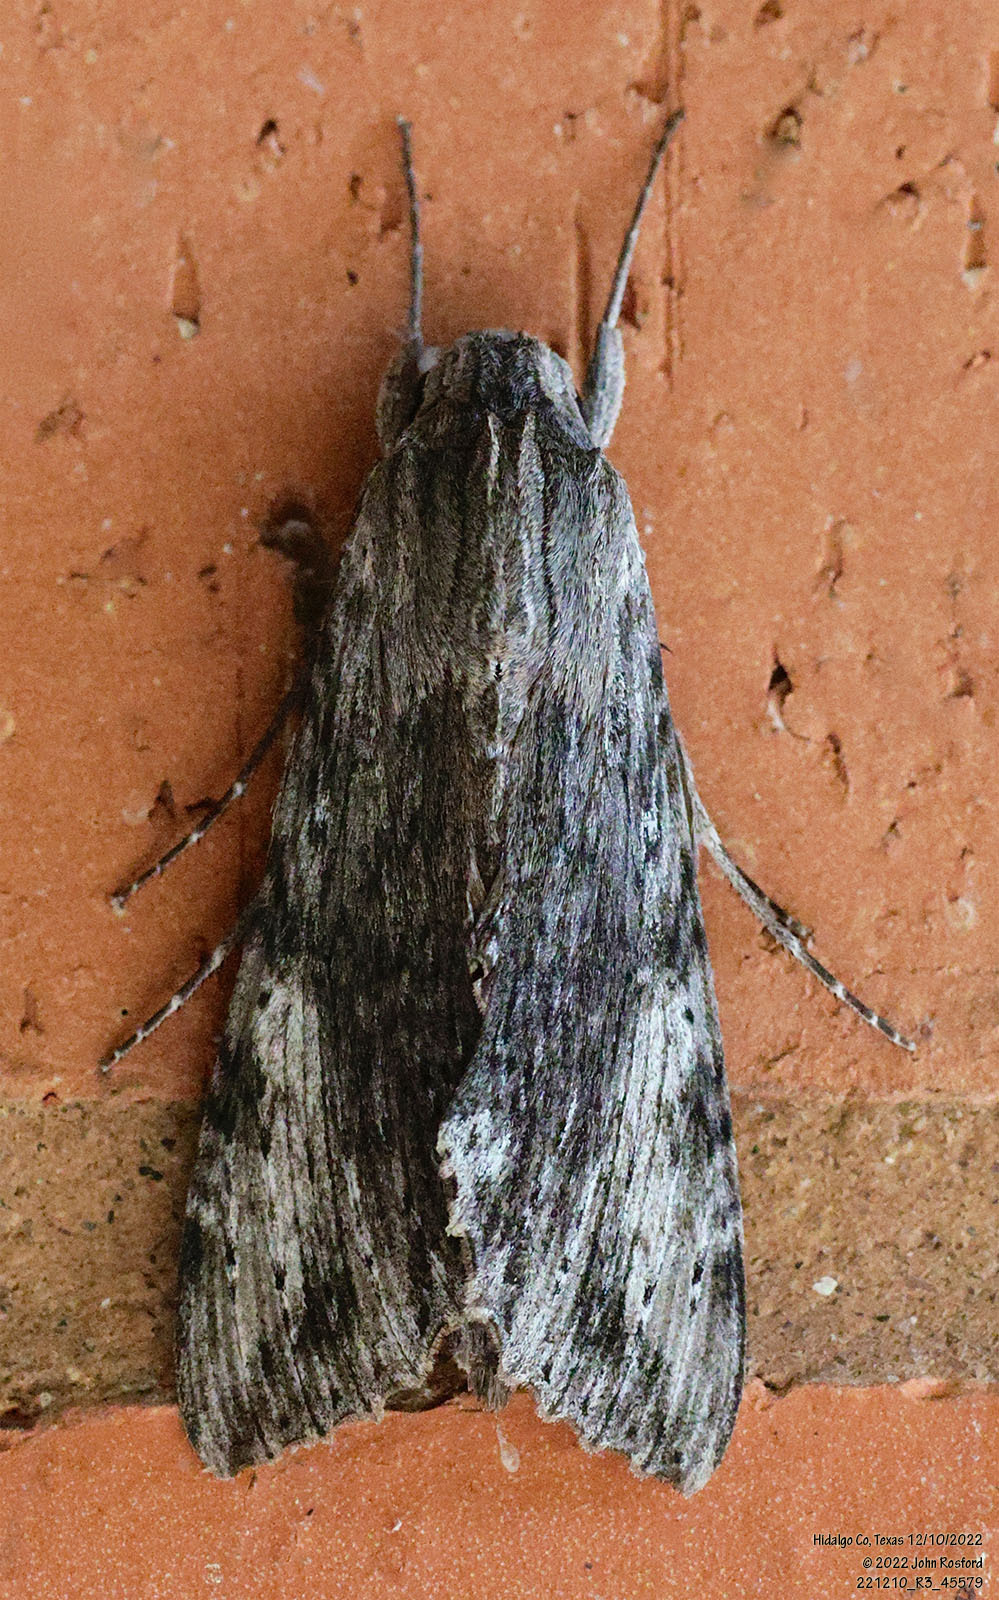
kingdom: Animalia
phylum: Arthropoda
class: Insecta
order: Lepidoptera
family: Sphingidae
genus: Erinnyis
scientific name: Erinnyis obscura
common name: Obscure sphinx
